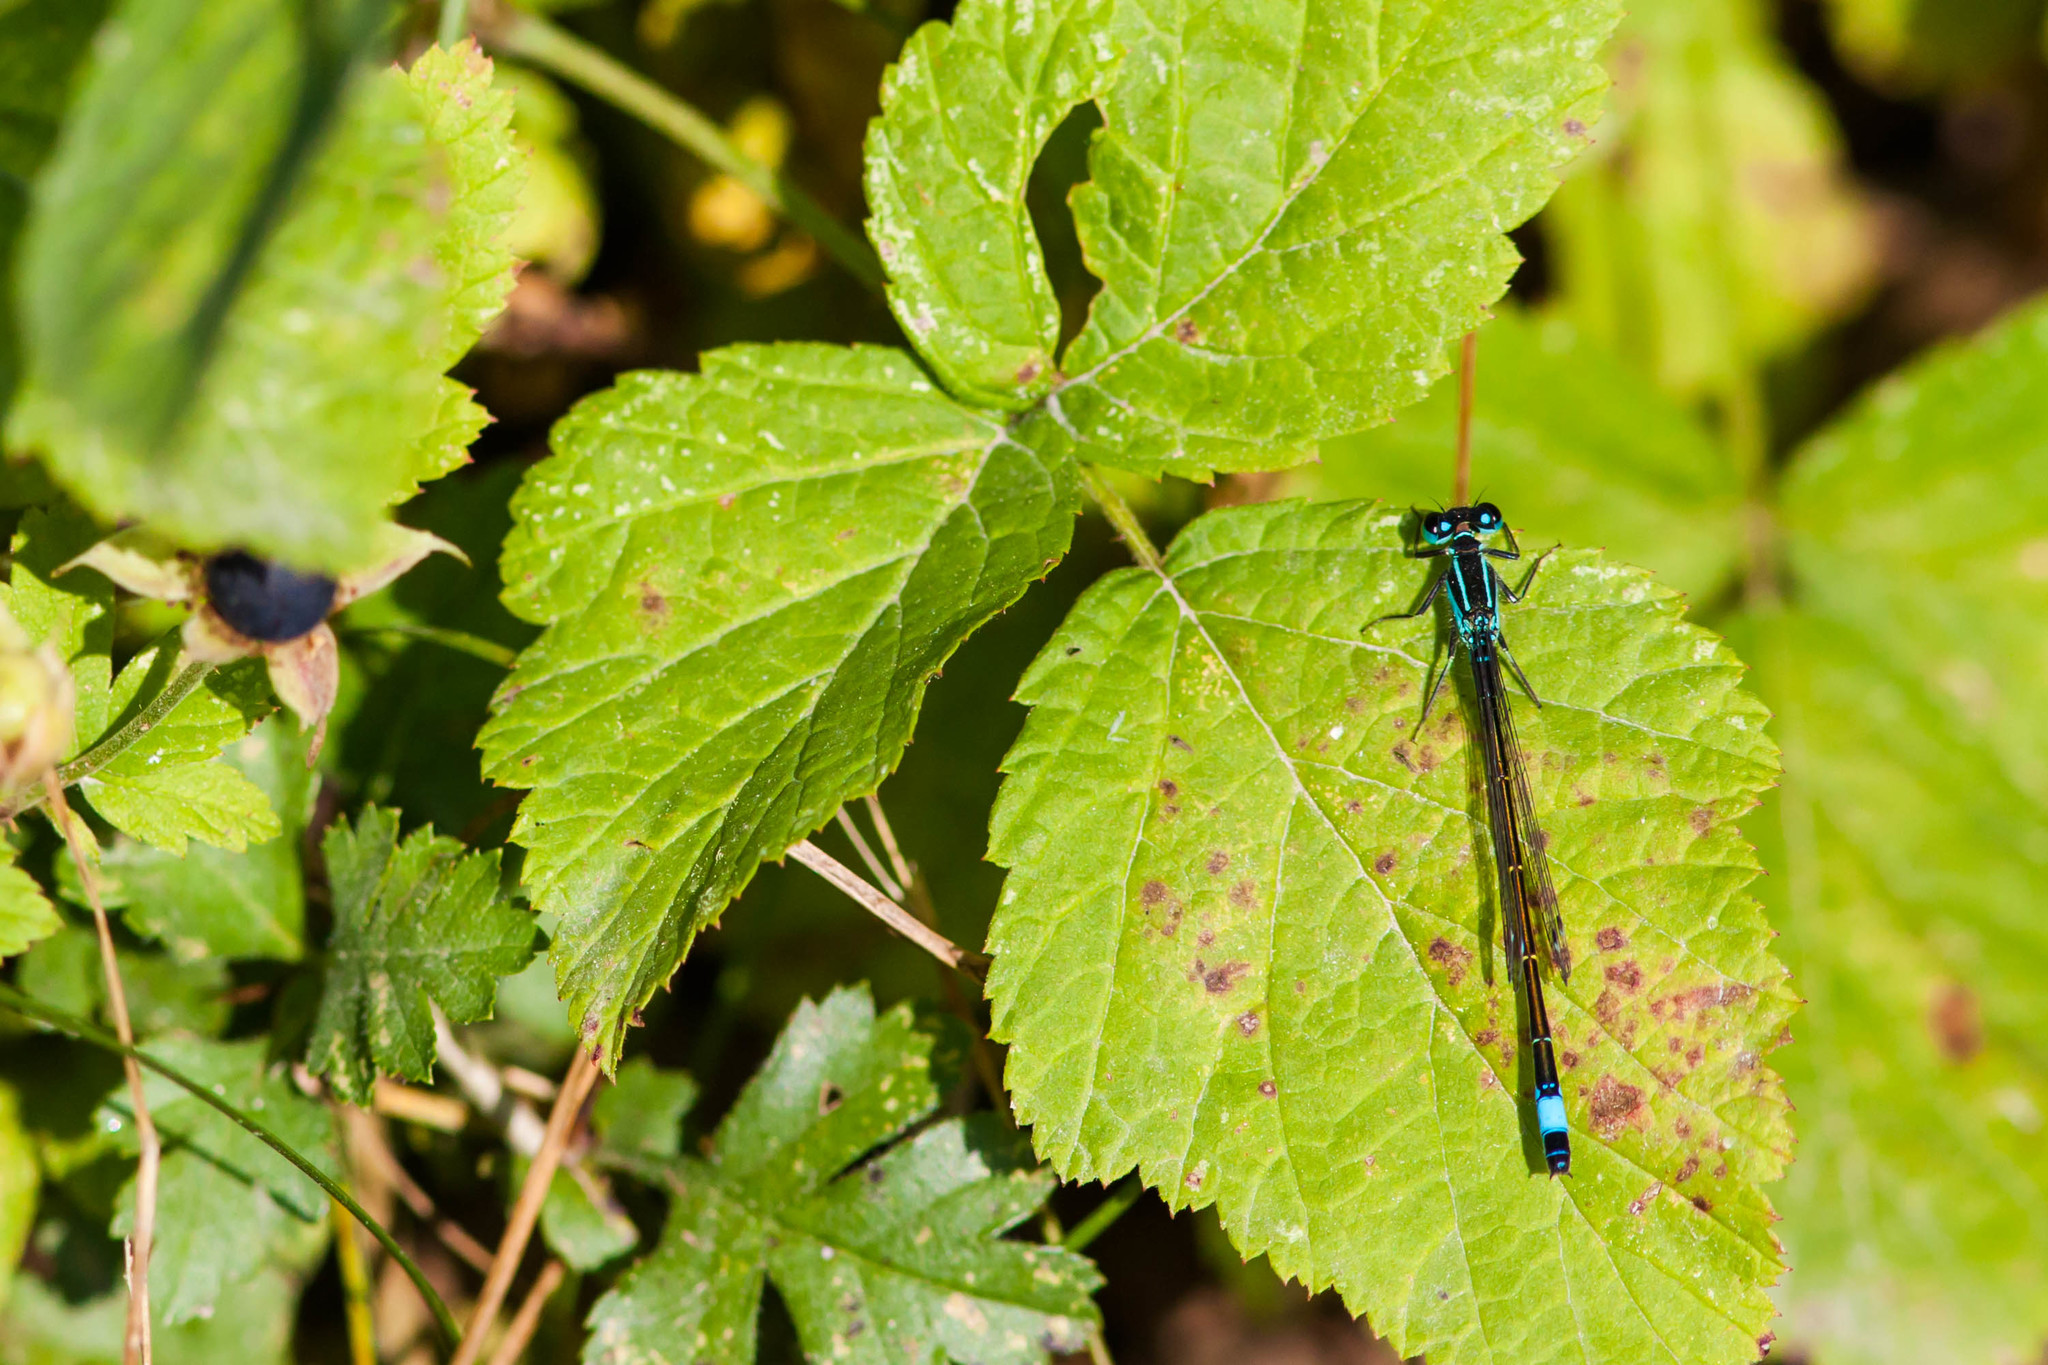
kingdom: Animalia
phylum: Arthropoda
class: Insecta
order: Odonata
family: Coenagrionidae
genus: Ischnura
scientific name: Ischnura elegans
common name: Blue-tailed damselfly
